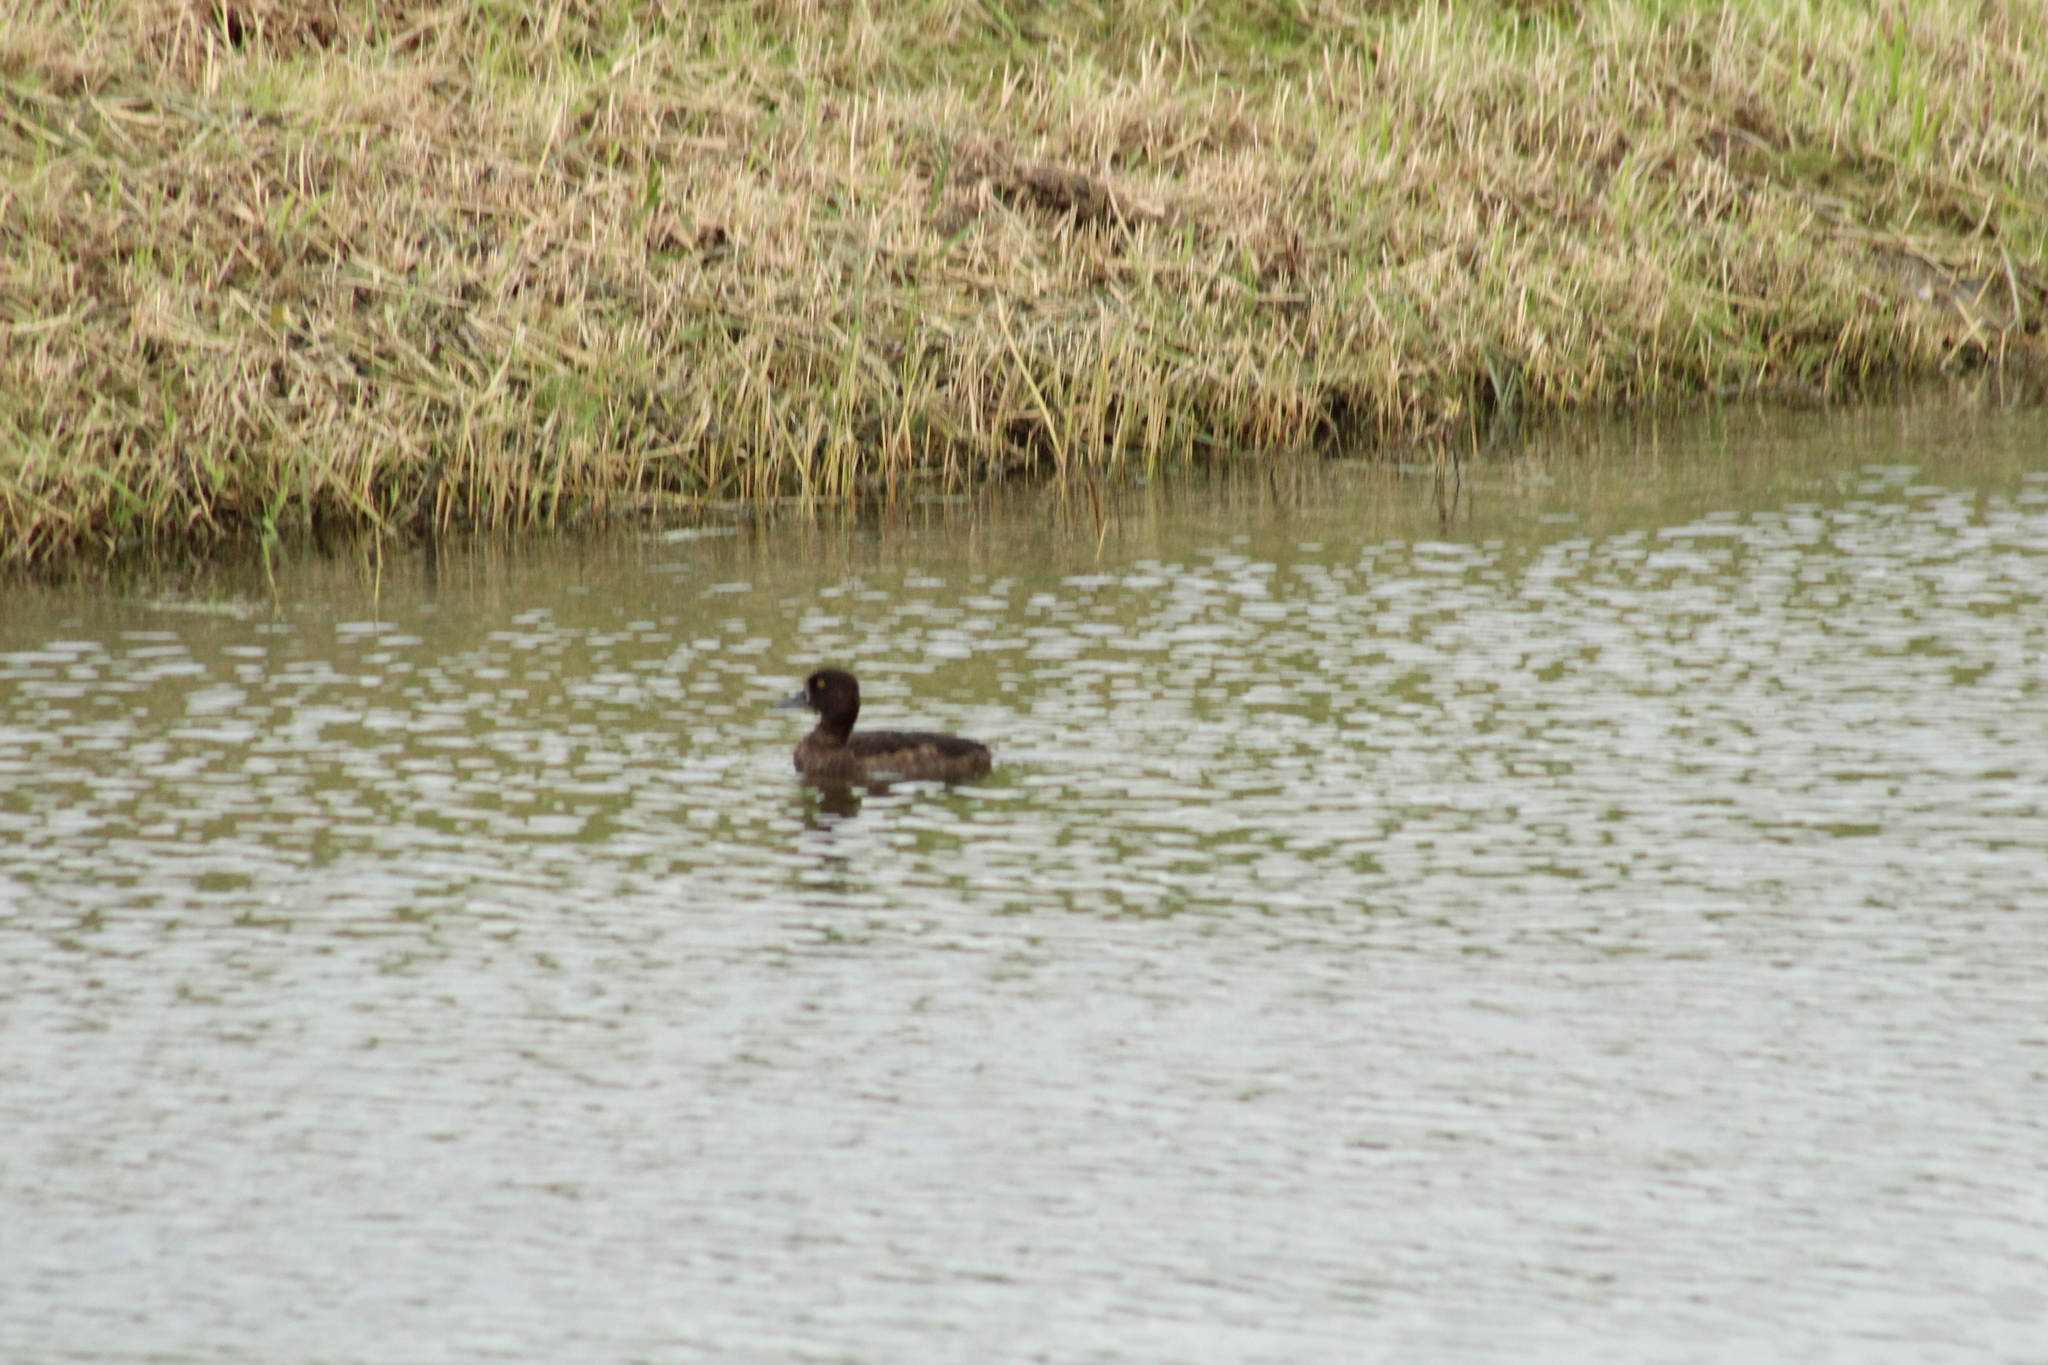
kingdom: Animalia
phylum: Chordata
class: Aves
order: Anseriformes
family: Anatidae
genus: Aythya
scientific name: Aythya fuligula
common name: Tufted duck
